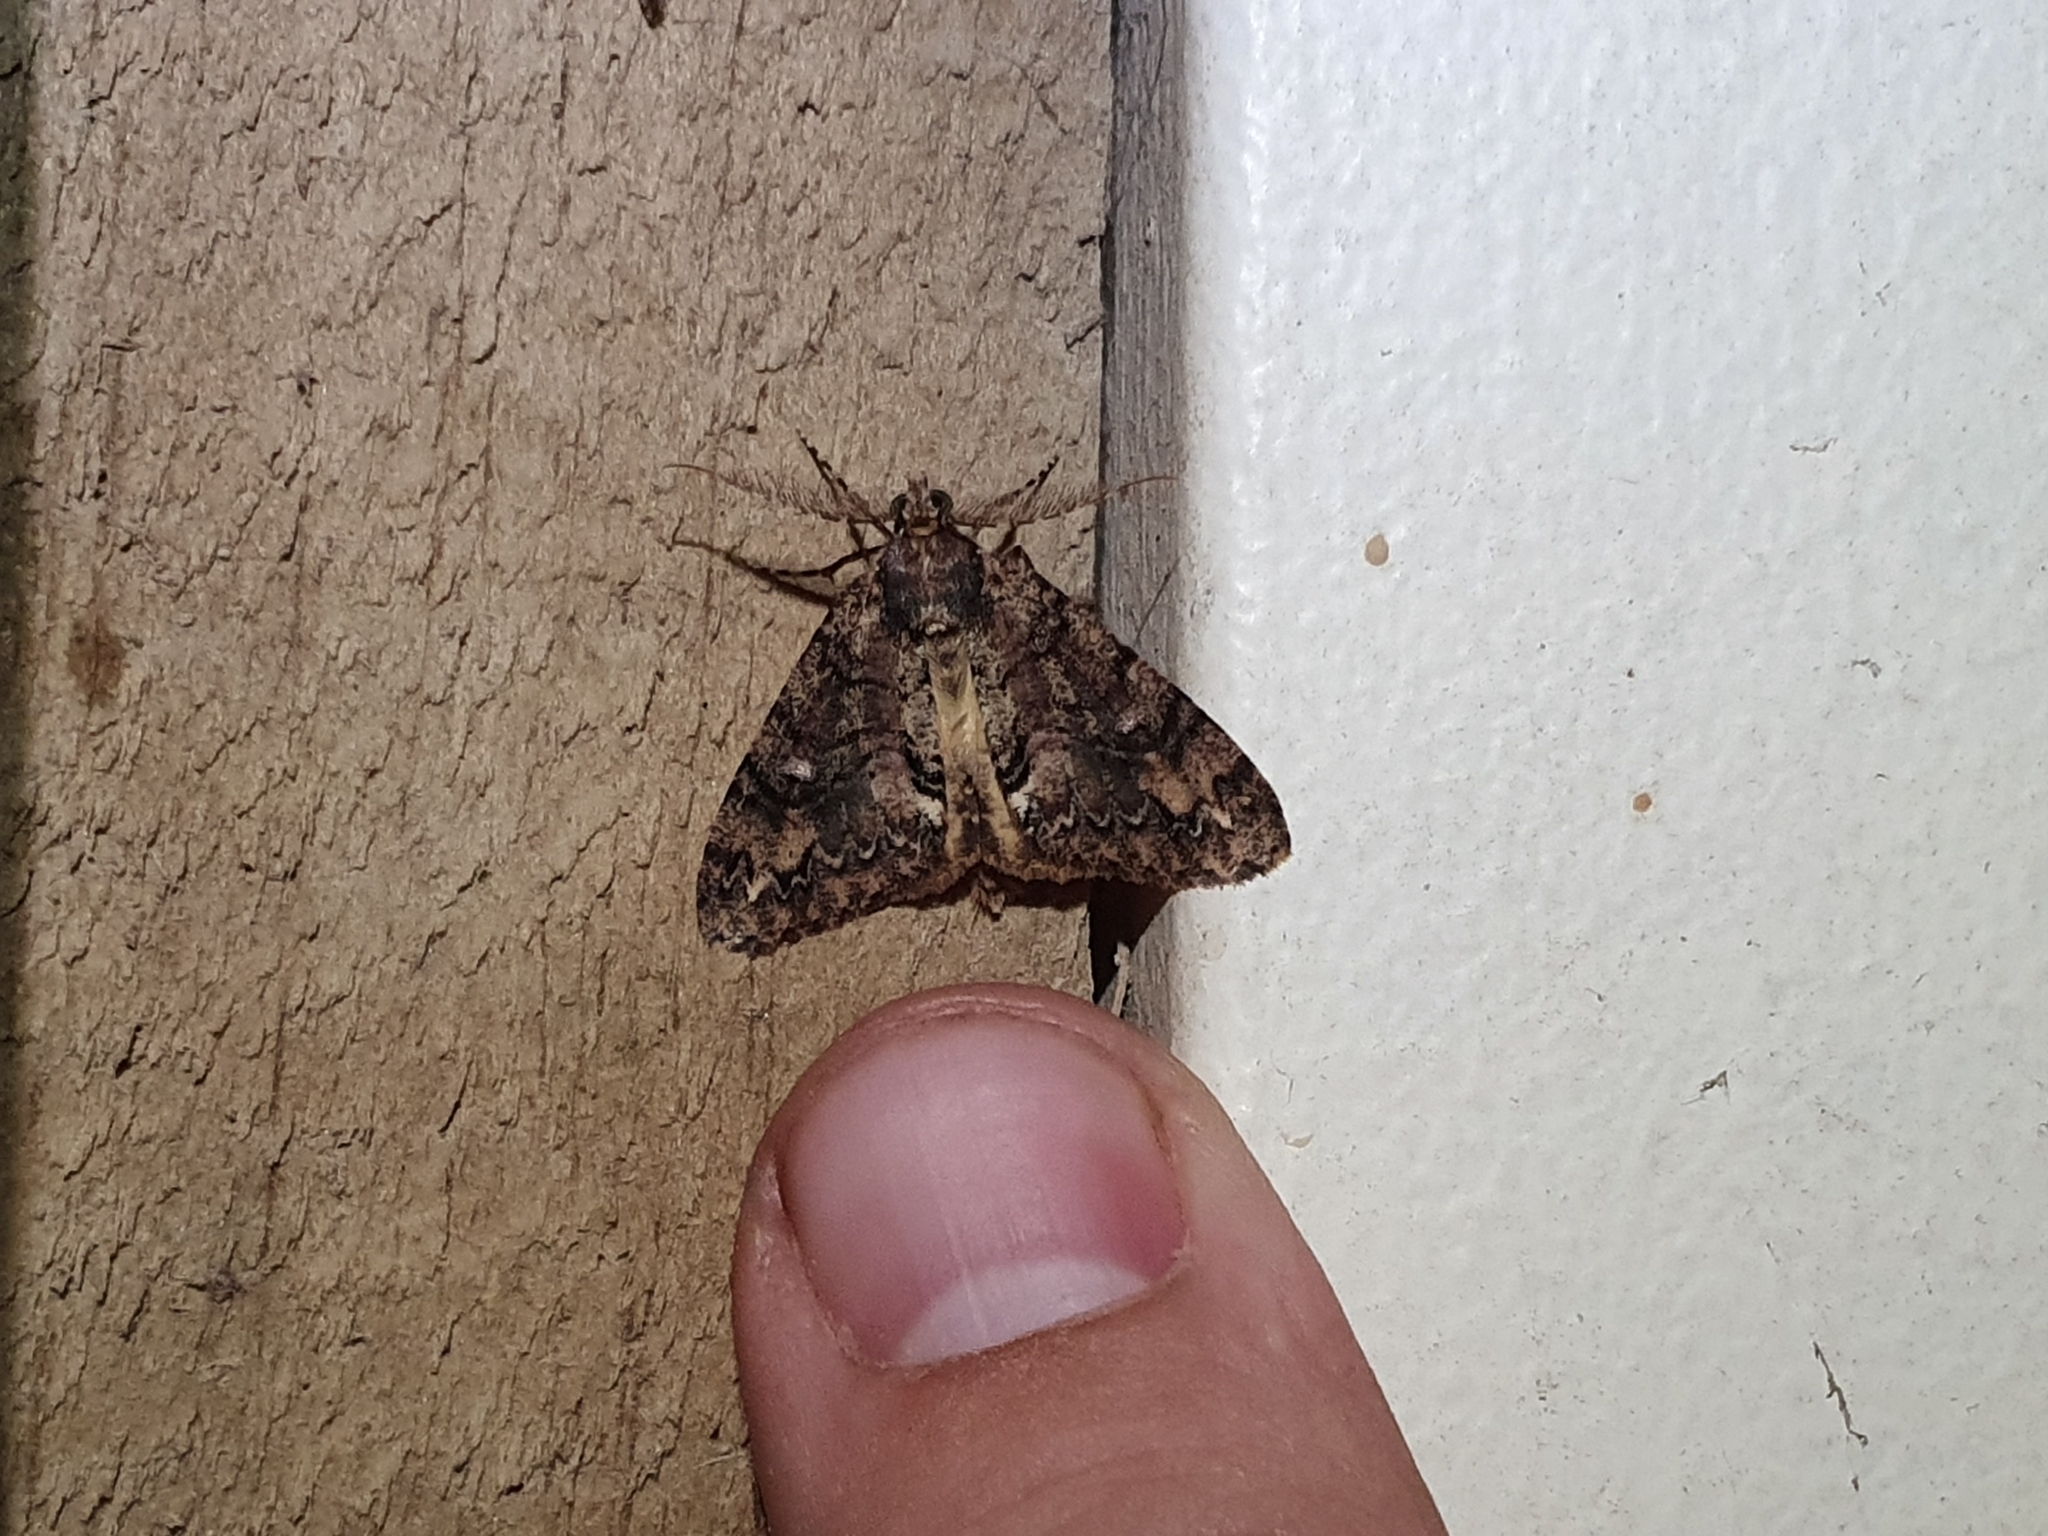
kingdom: Animalia
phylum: Arthropoda
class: Insecta
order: Lepidoptera
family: Geometridae
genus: Pseudocoremia
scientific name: Pseudocoremia suavis
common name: Common forest looper
